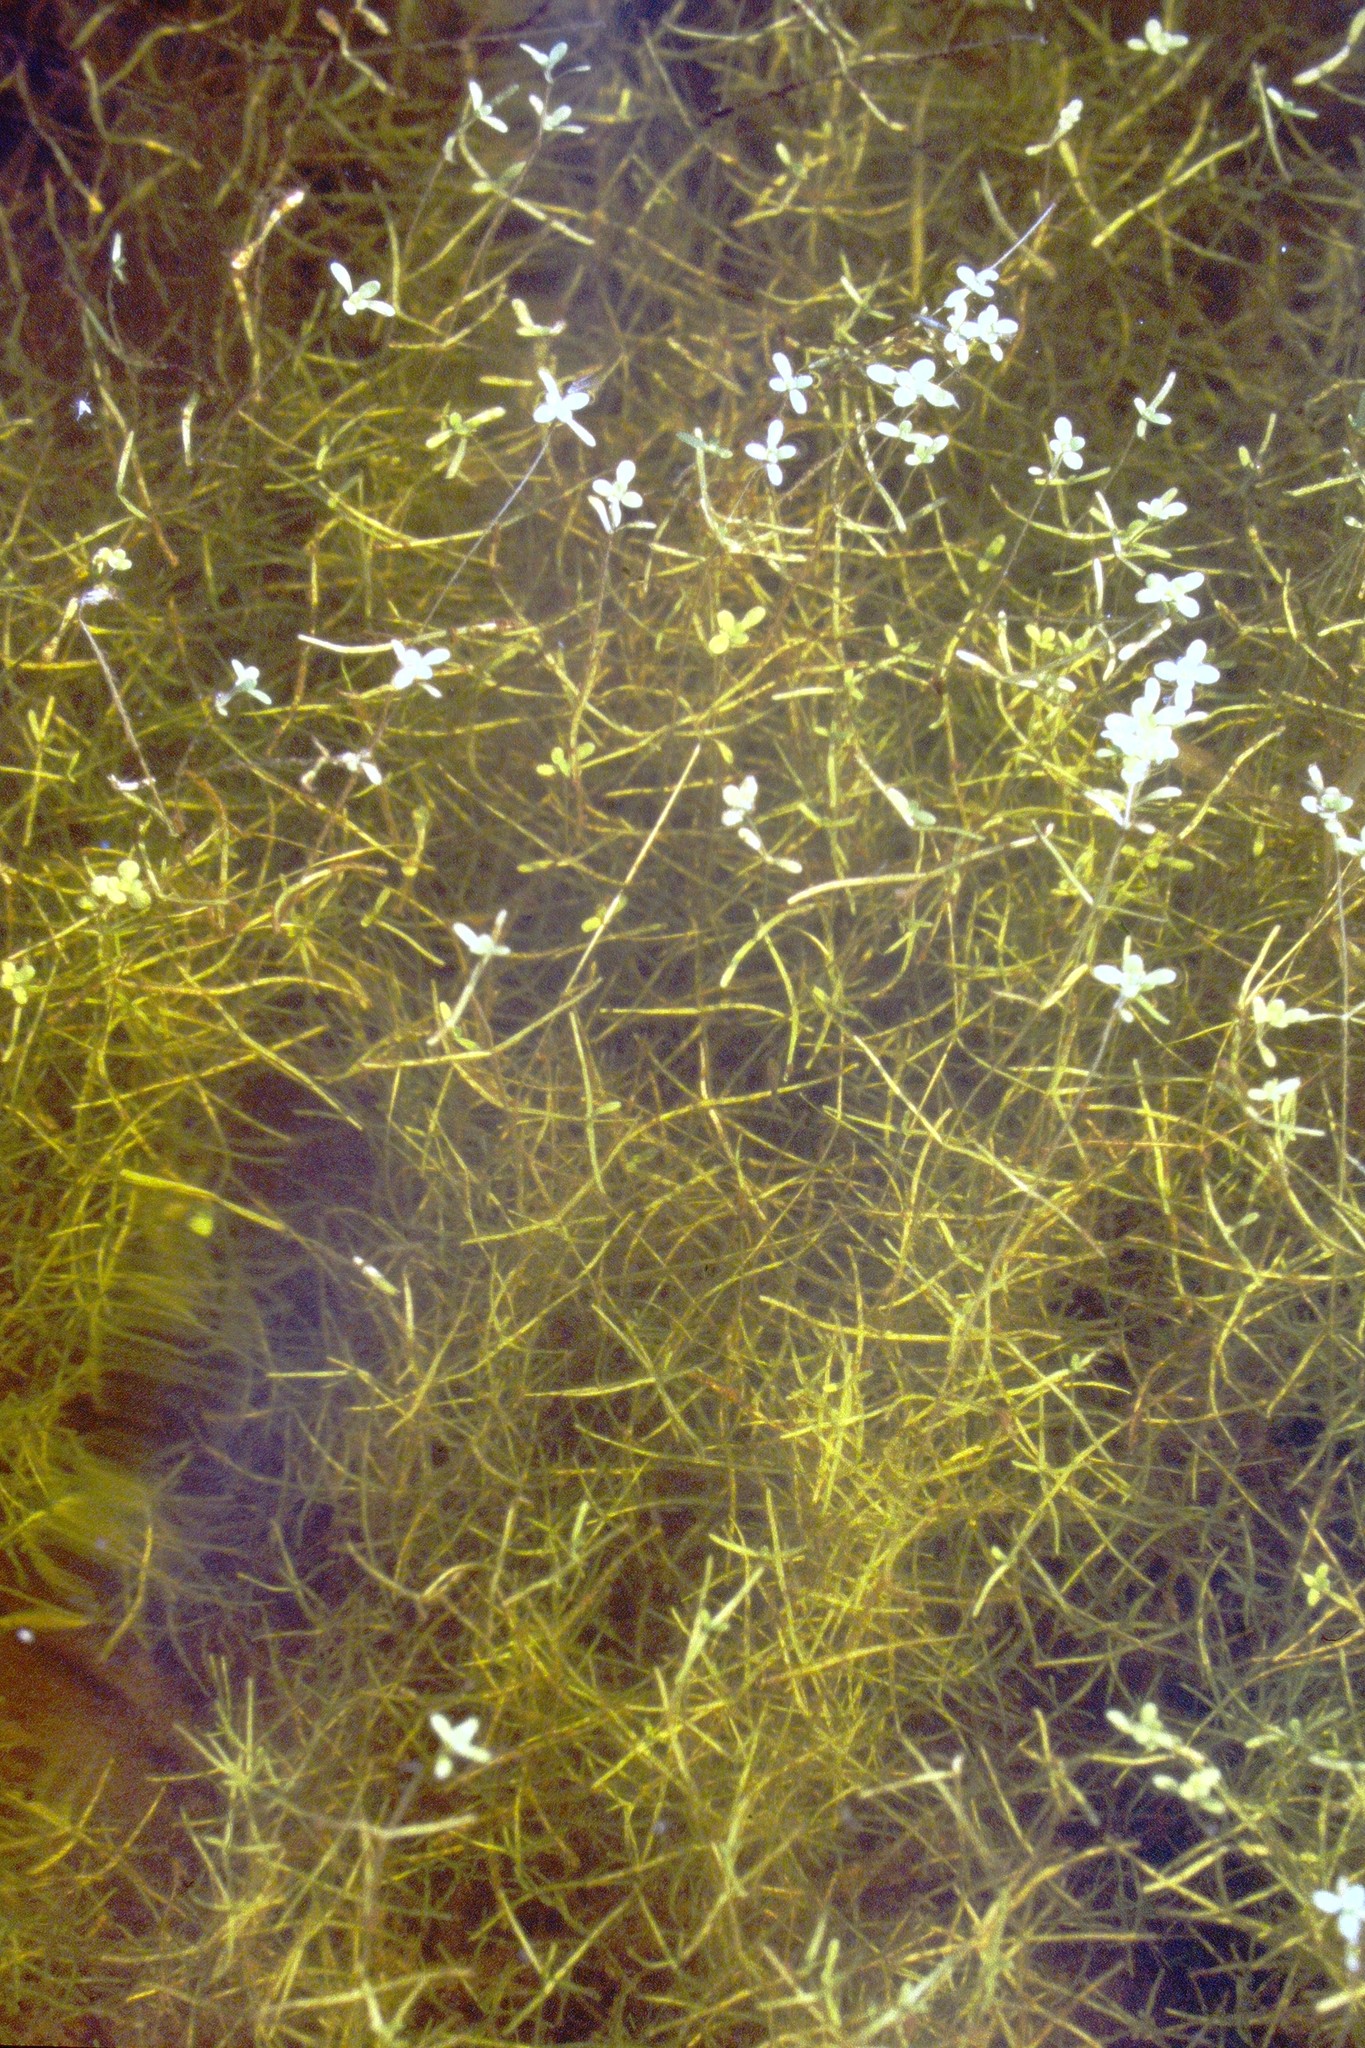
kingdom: Plantae
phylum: Tracheophyta
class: Magnoliopsida
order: Lamiales
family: Plantaginaceae
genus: Callitriche
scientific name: Callitriche palustris
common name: Spring water-starwort
